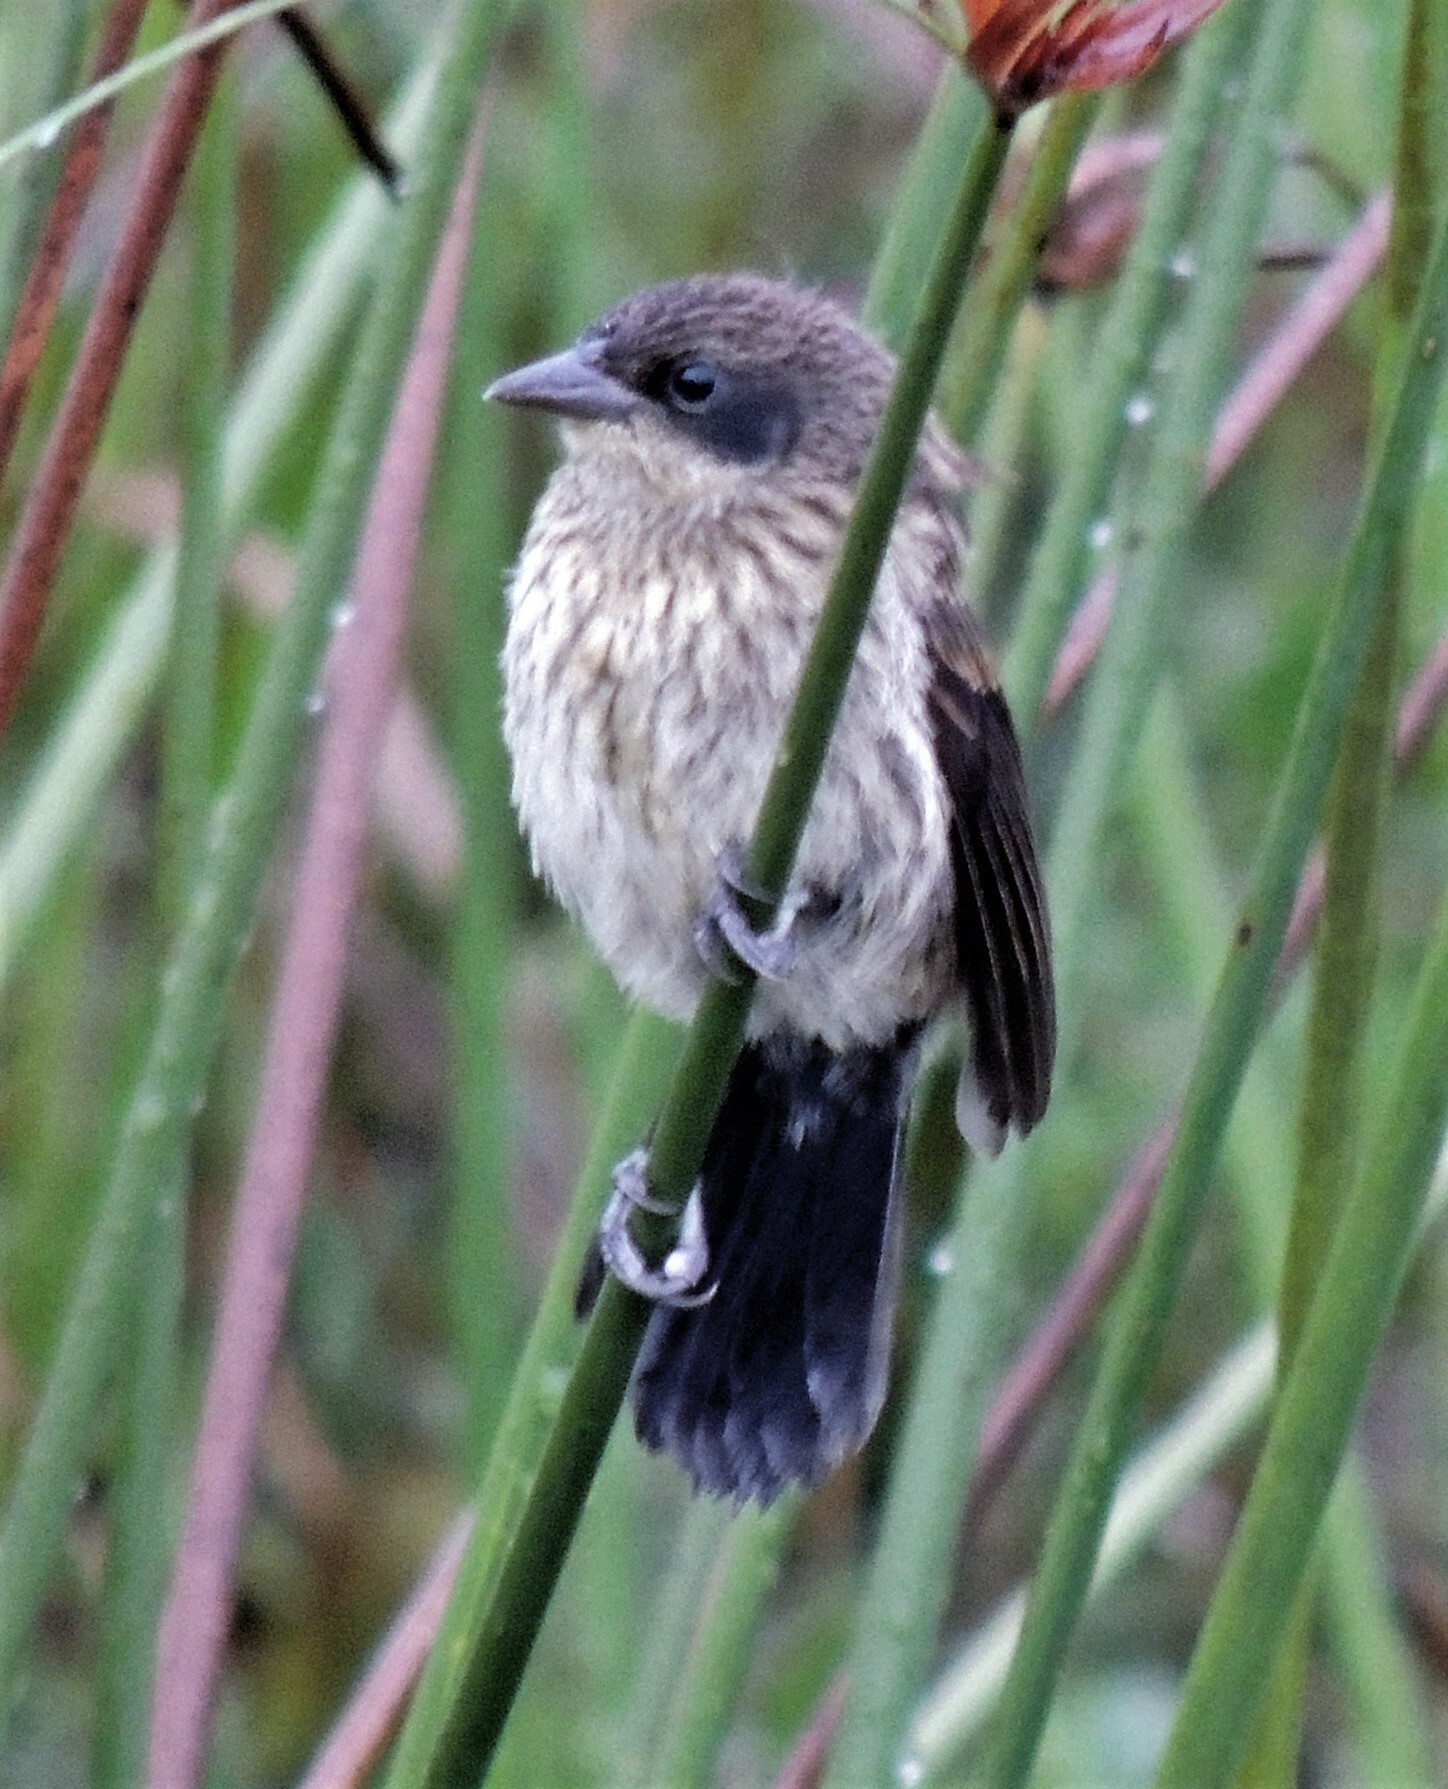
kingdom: Animalia
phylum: Chordata
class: Aves
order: Passeriformes
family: Icteridae
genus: Agelasticus
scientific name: Agelasticus cyanopus
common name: Unicolored blackbird
